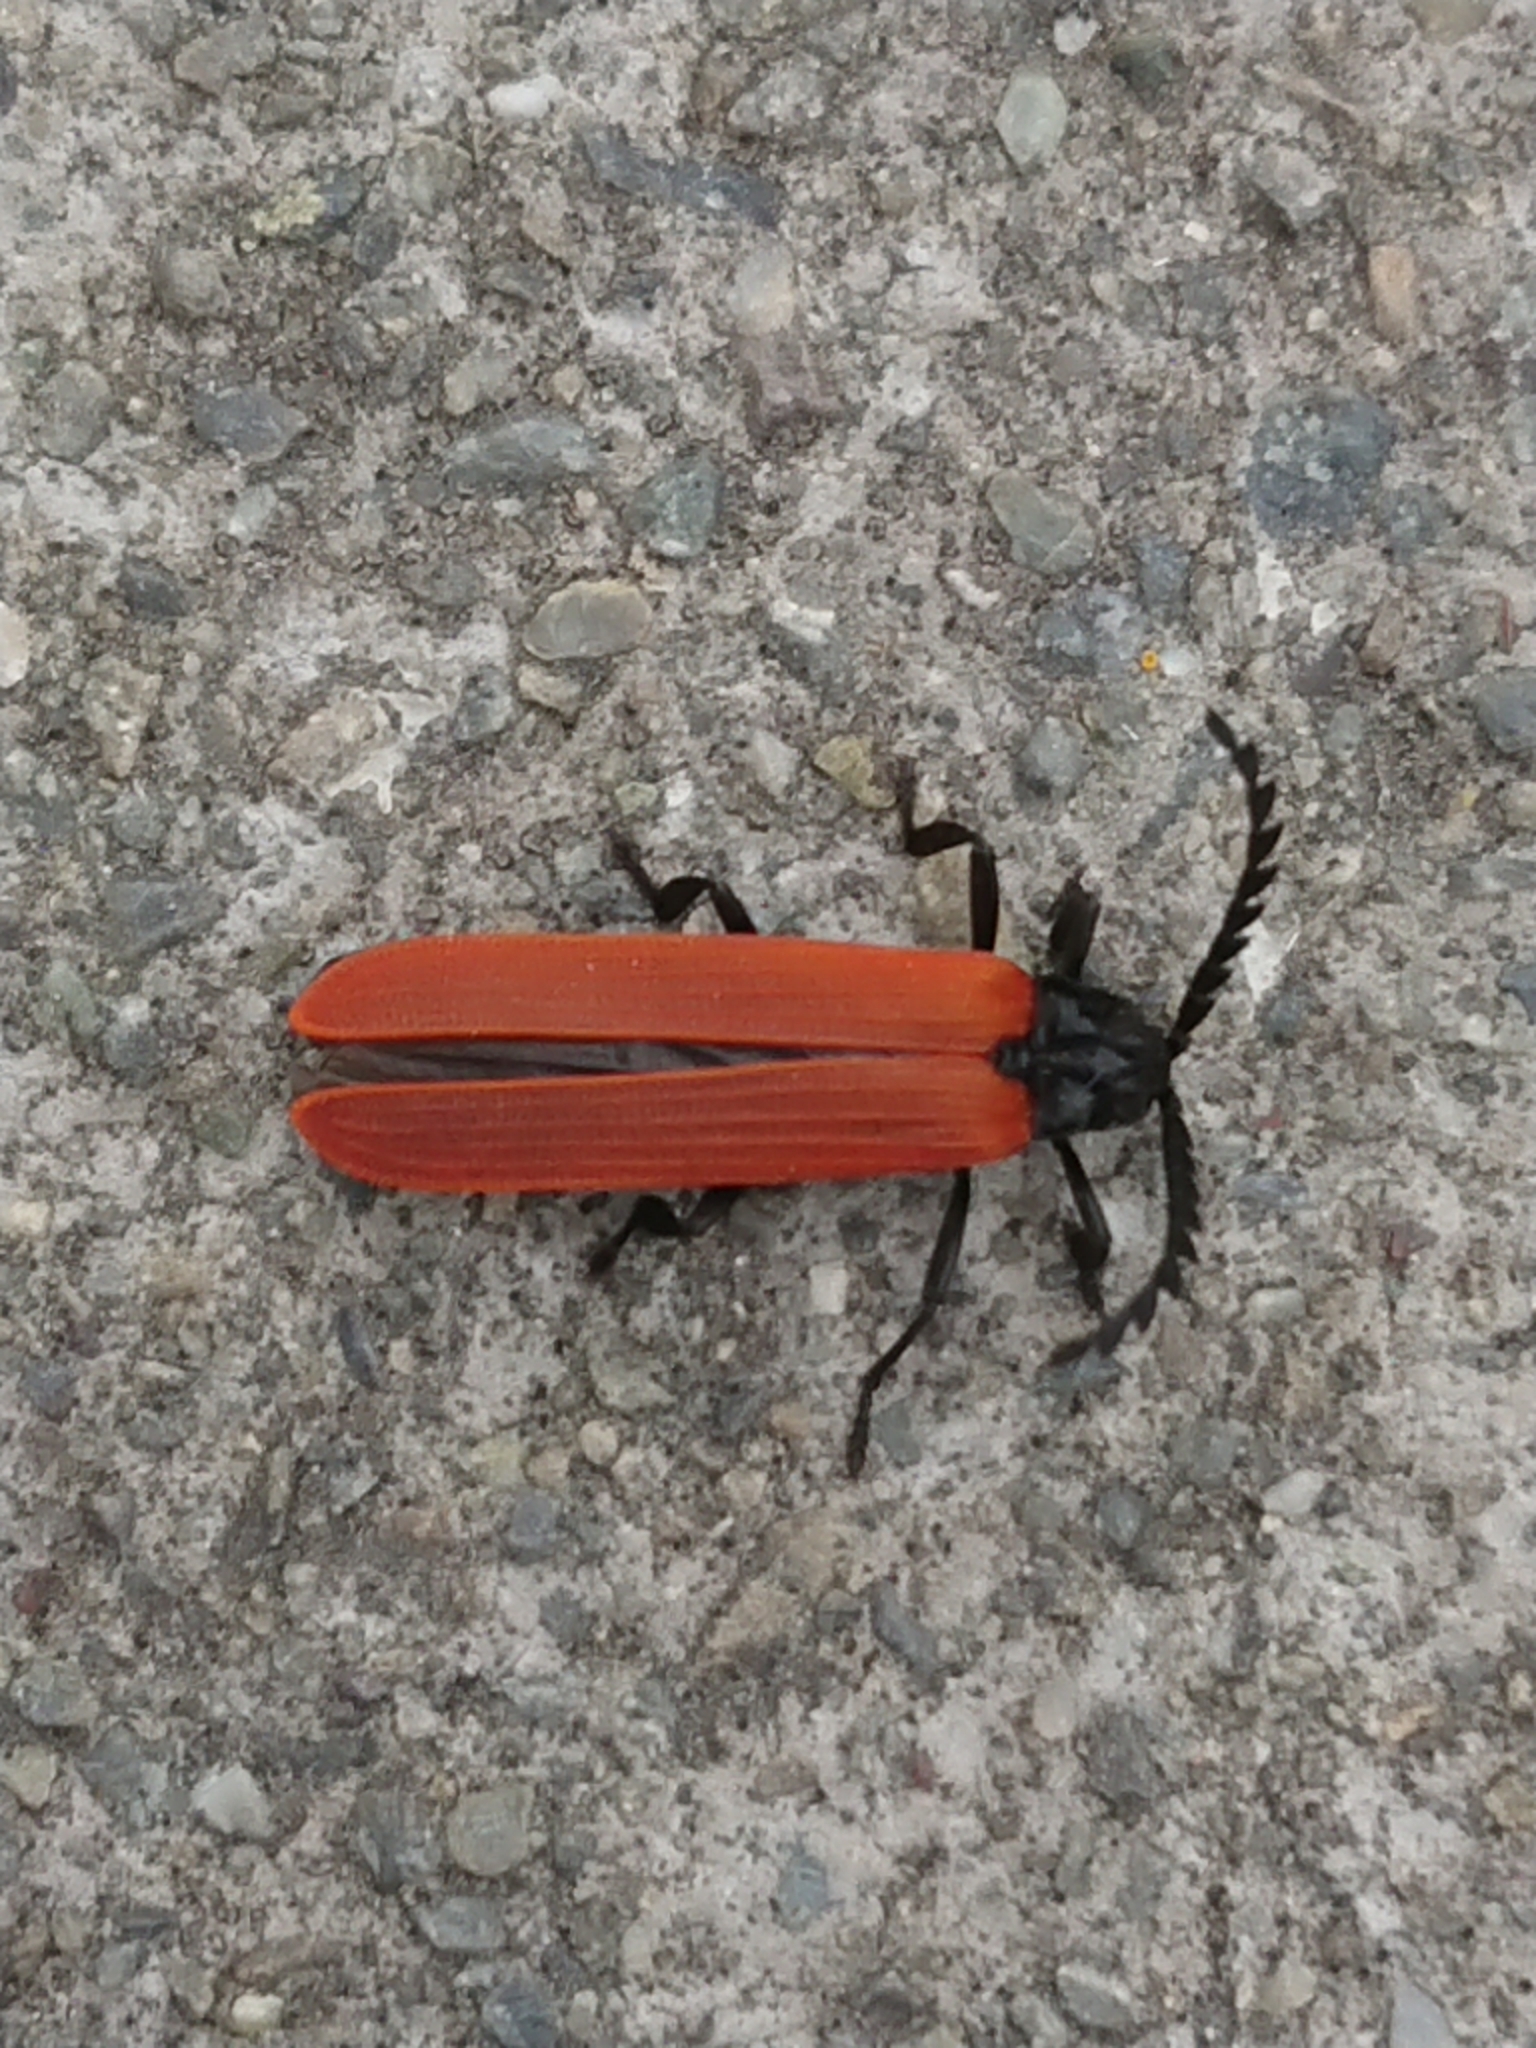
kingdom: Animalia
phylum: Arthropoda
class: Insecta
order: Coleoptera
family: Lycidae
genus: Porrostoma
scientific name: Porrostoma rufipenne
